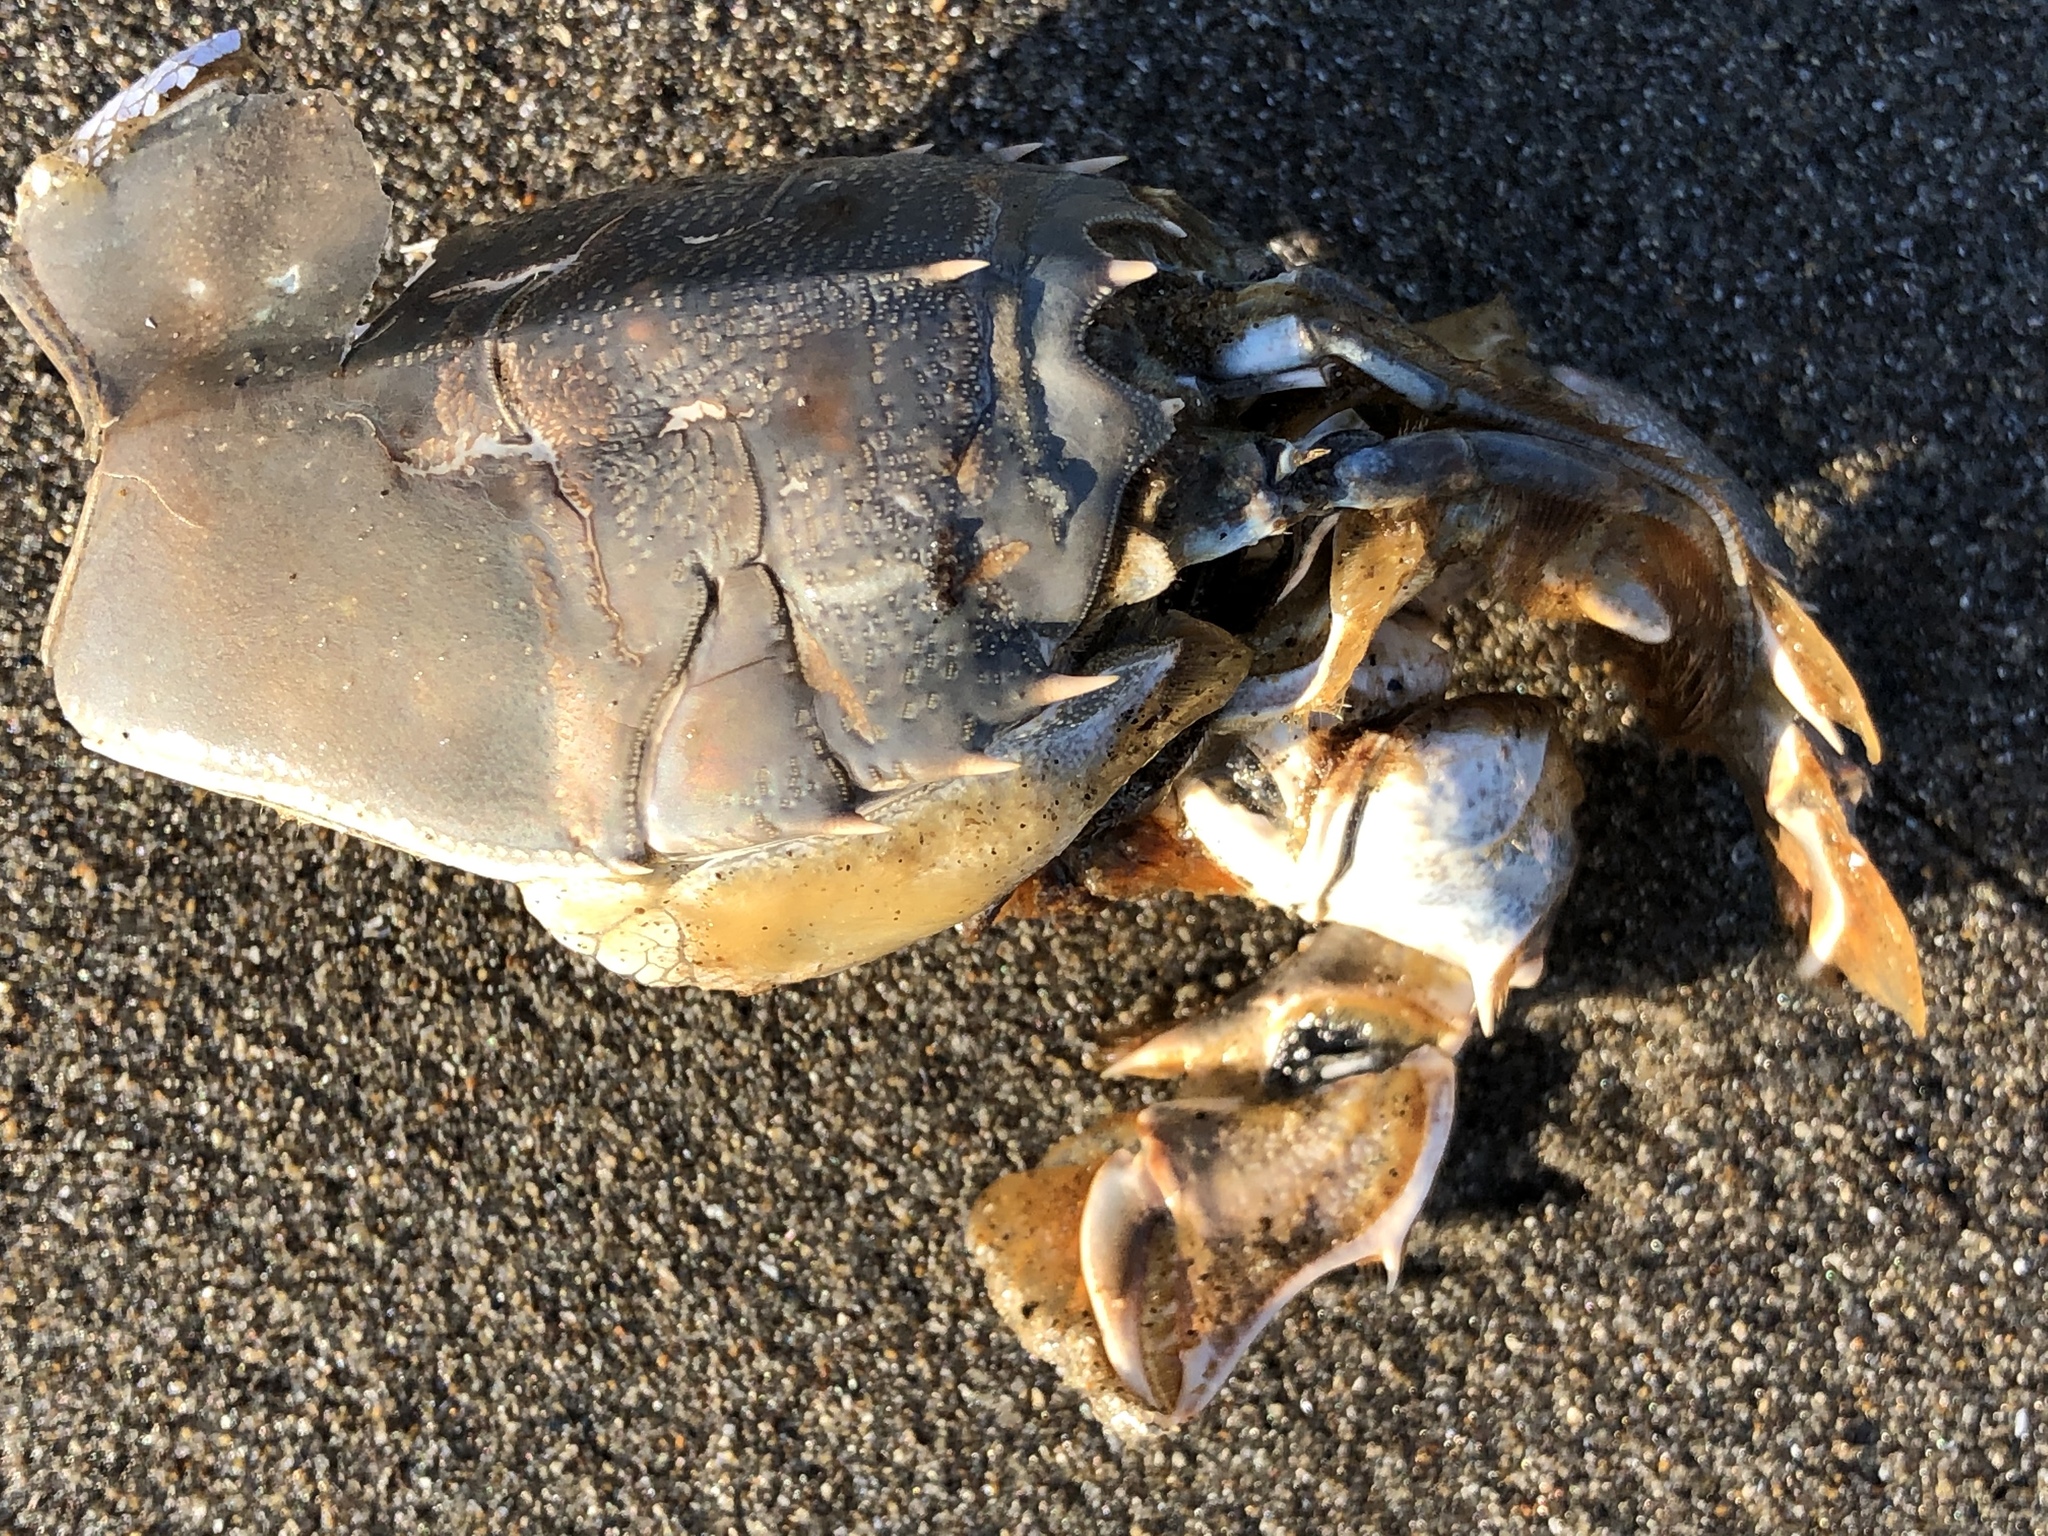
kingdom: Animalia
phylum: Arthropoda
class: Malacostraca
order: Decapoda
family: Blepharipodidae
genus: Blepharipoda
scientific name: Blepharipoda occidentalis
